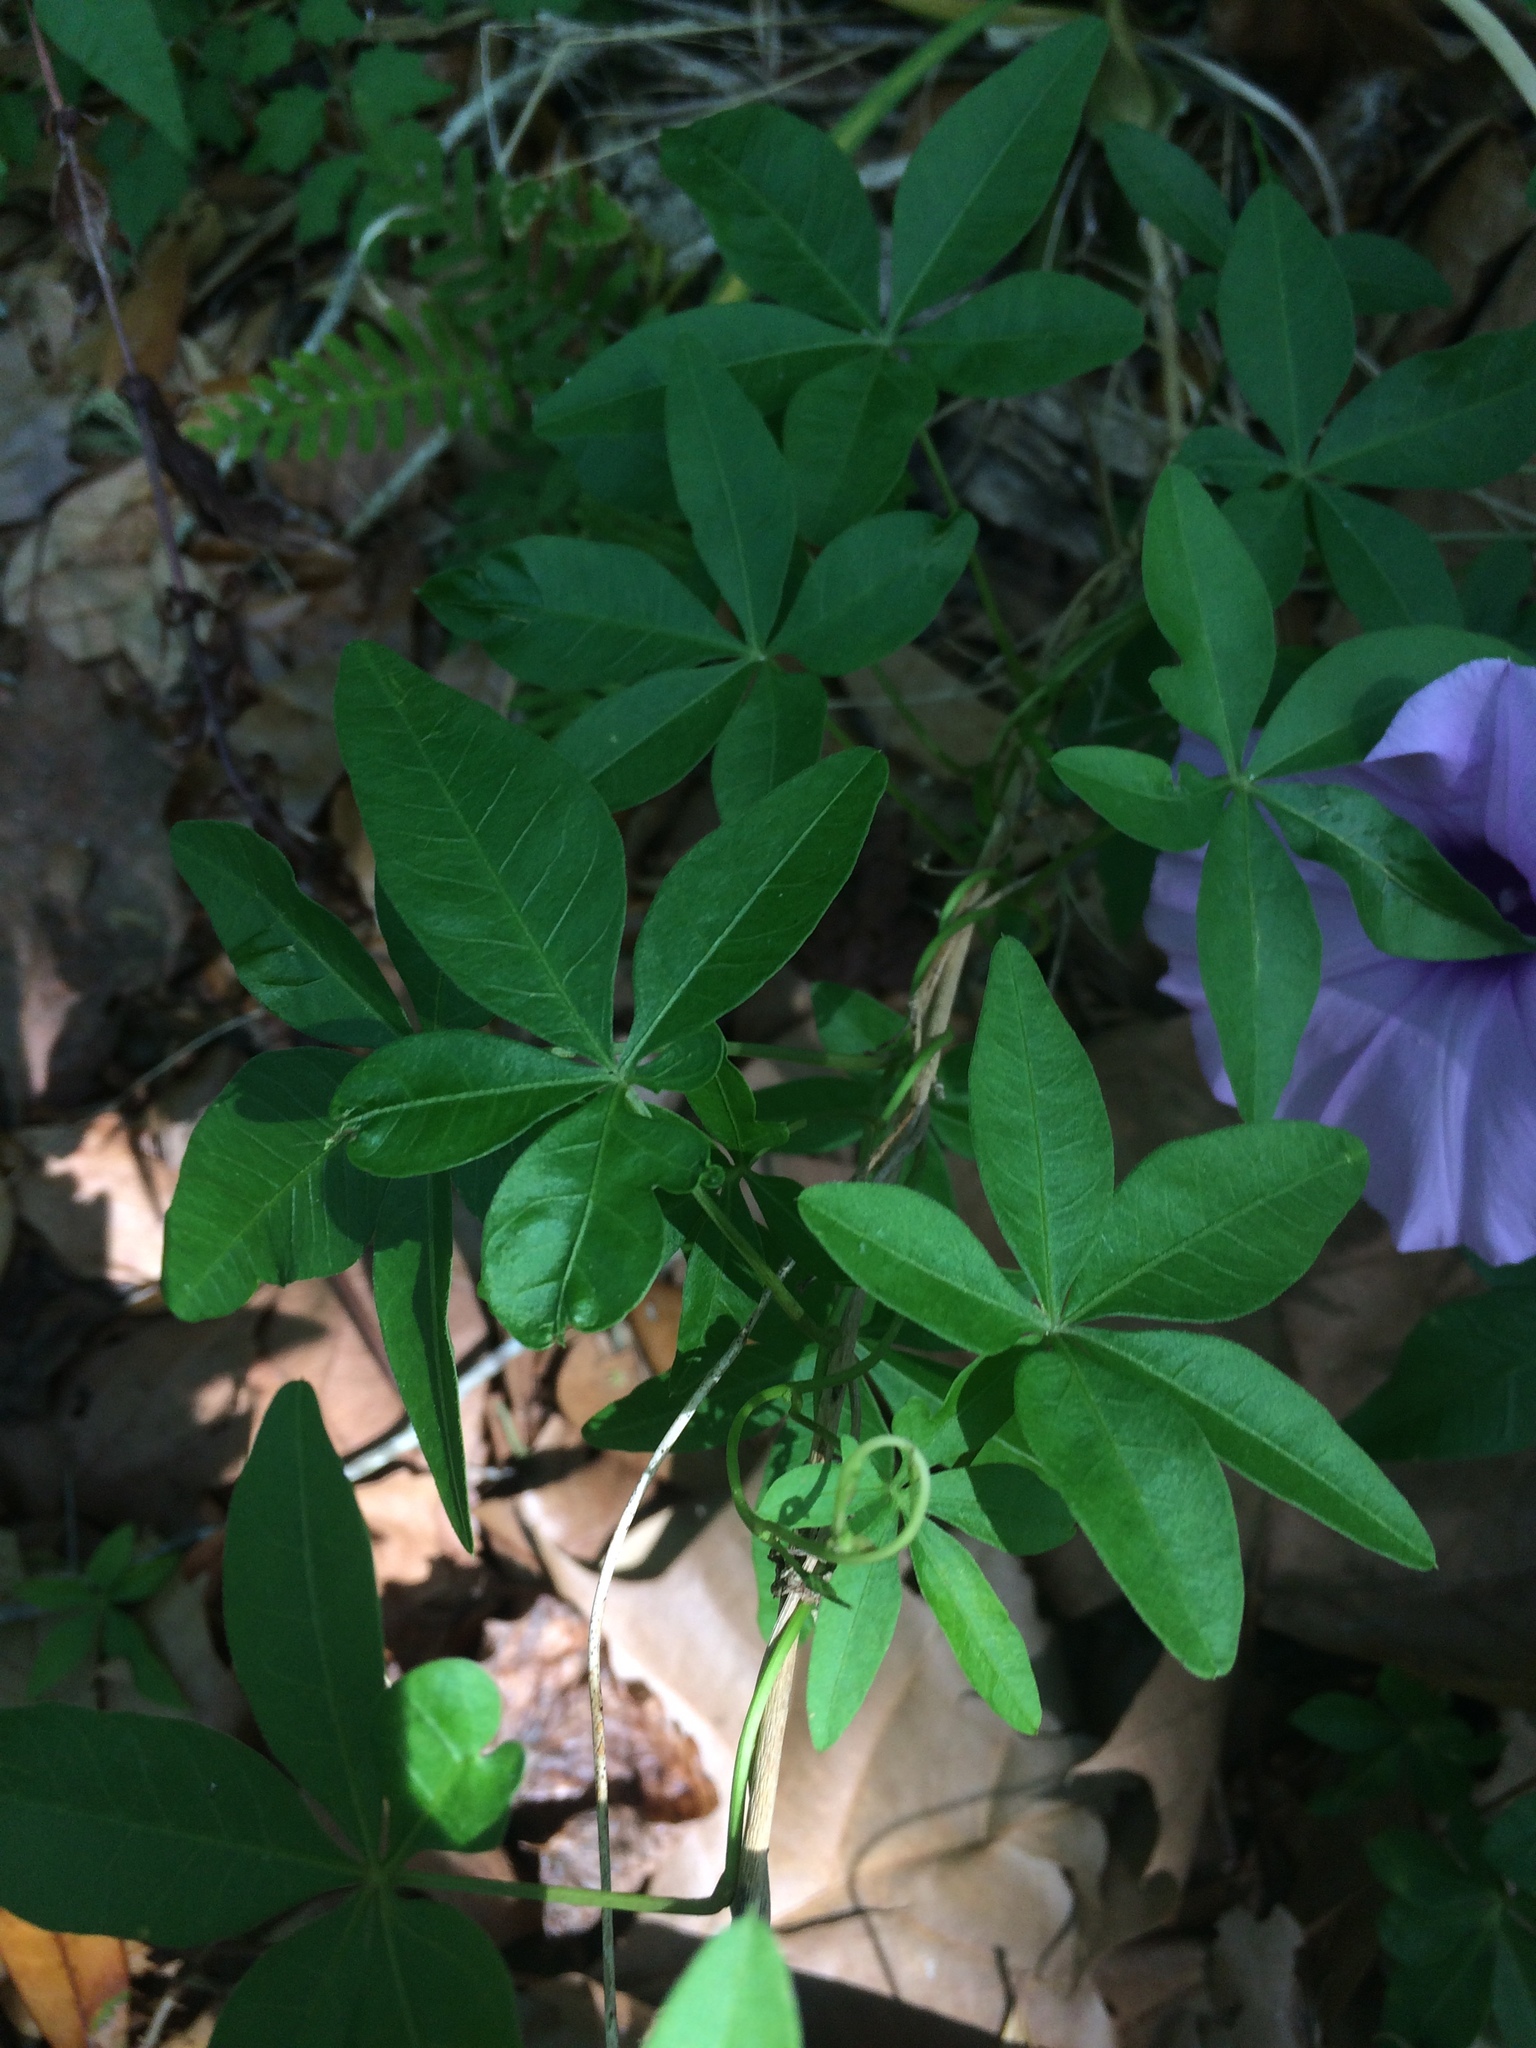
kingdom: Plantae
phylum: Tracheophyta
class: Magnoliopsida
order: Solanales
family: Convolvulaceae
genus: Ipomoea
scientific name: Ipomoea cairica
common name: Mile a minute vine
